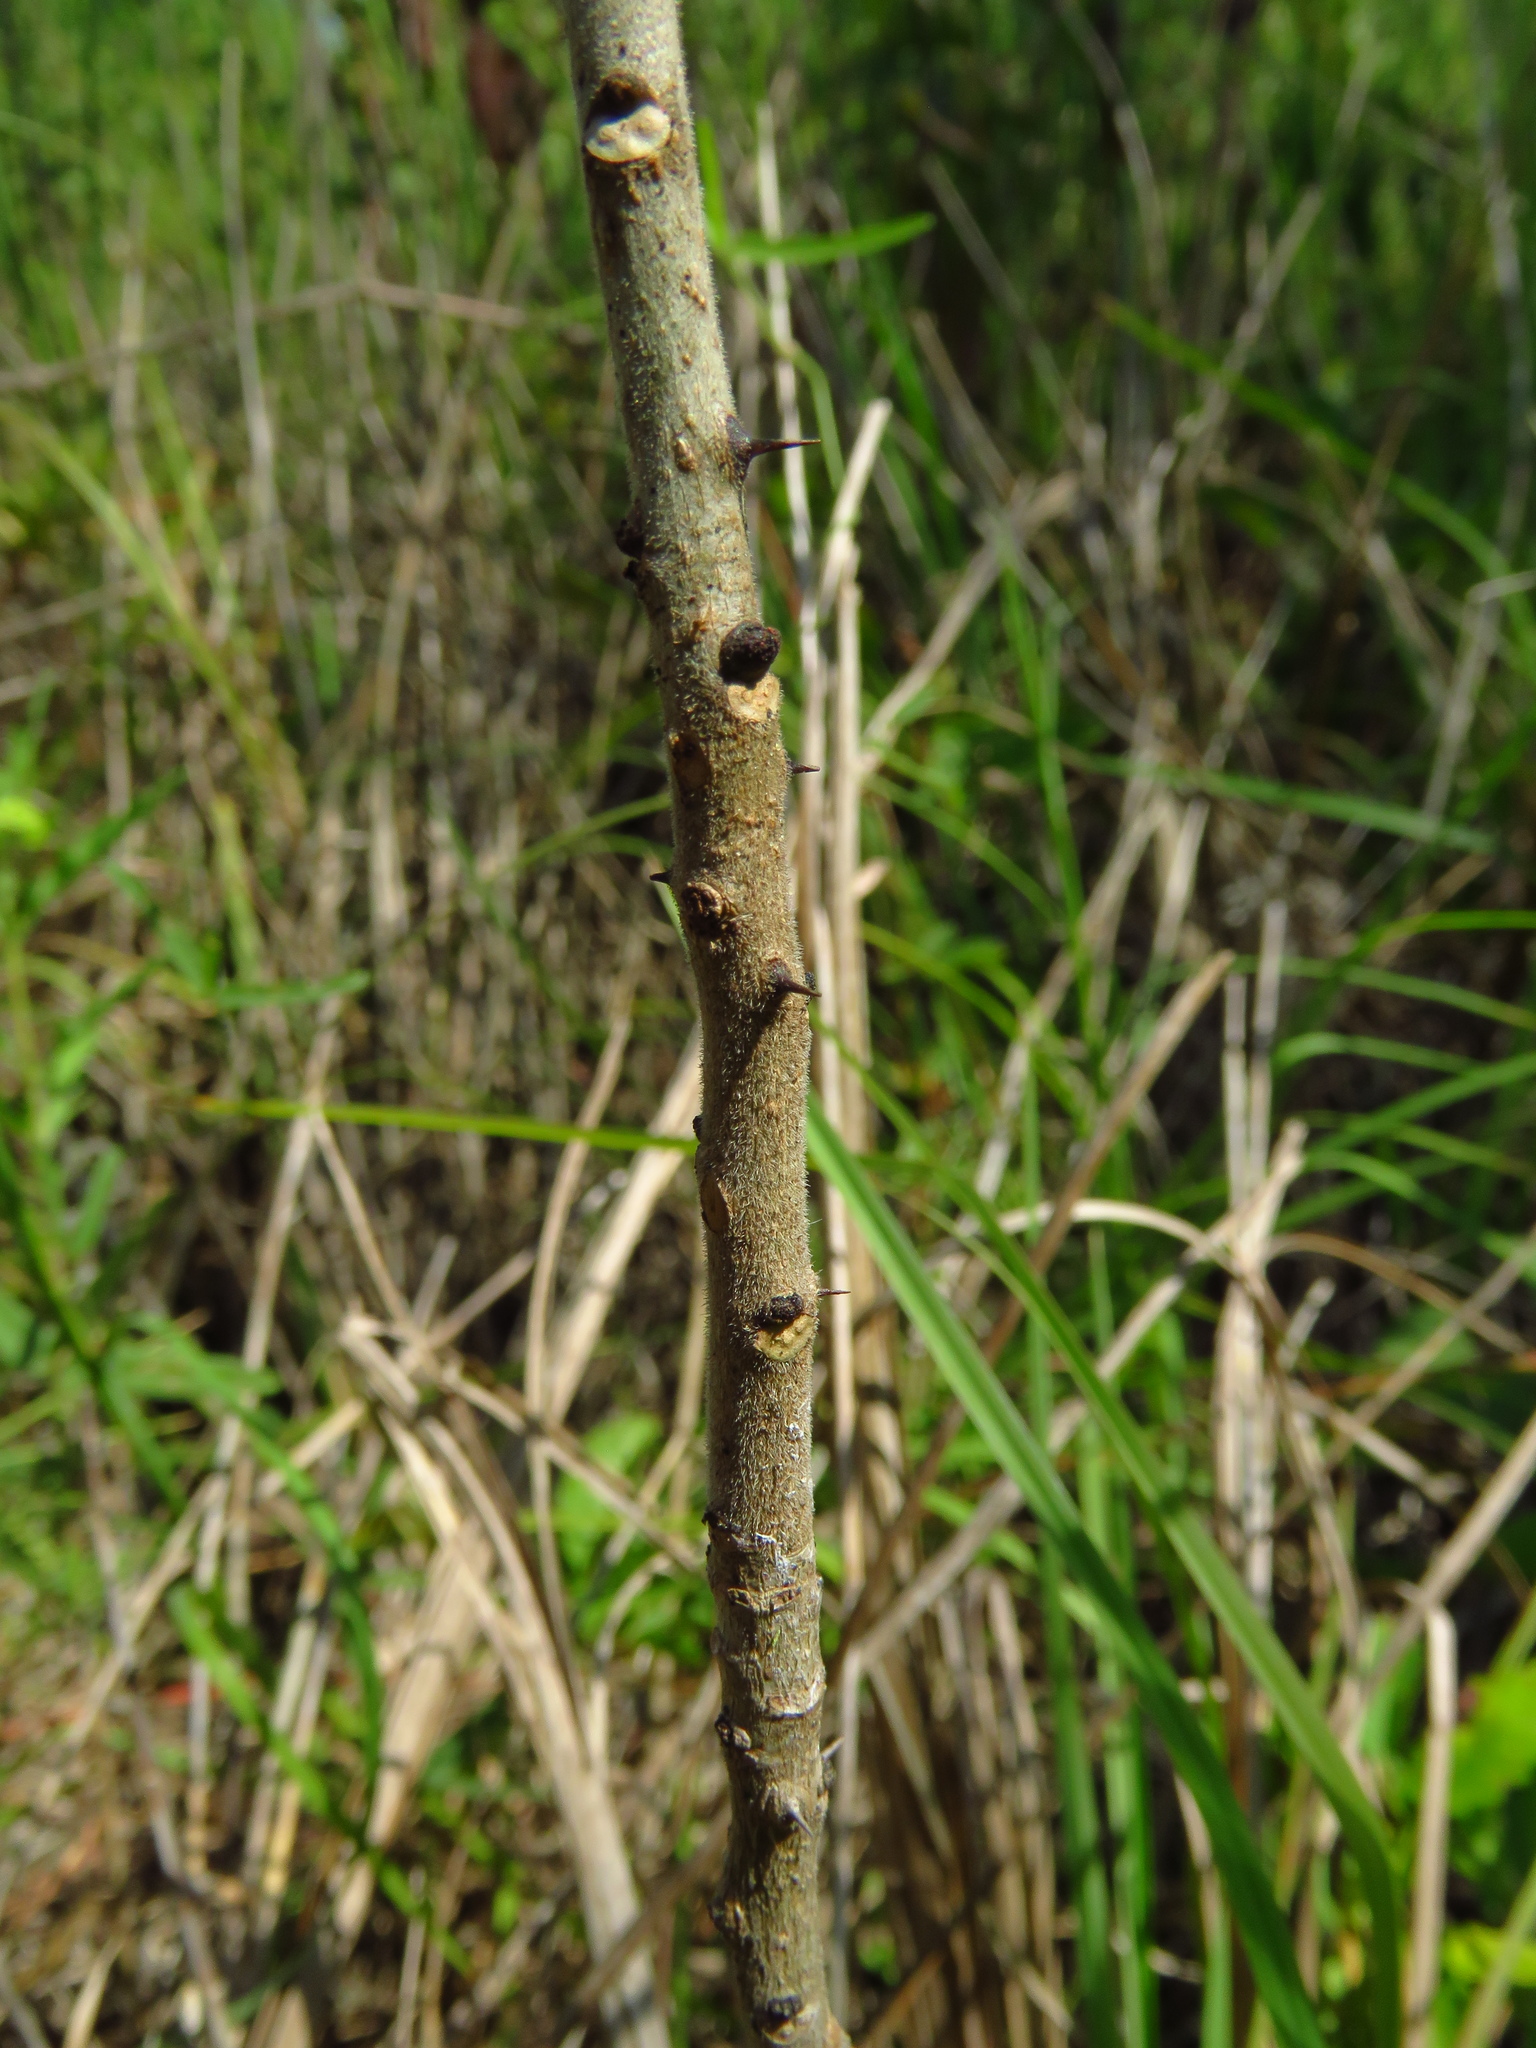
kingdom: Plantae
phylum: Tracheophyta
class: Magnoliopsida
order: Sapindales
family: Rutaceae
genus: Zanthoxylum
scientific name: Zanthoxylum clava-herculis
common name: Hercules'-club
